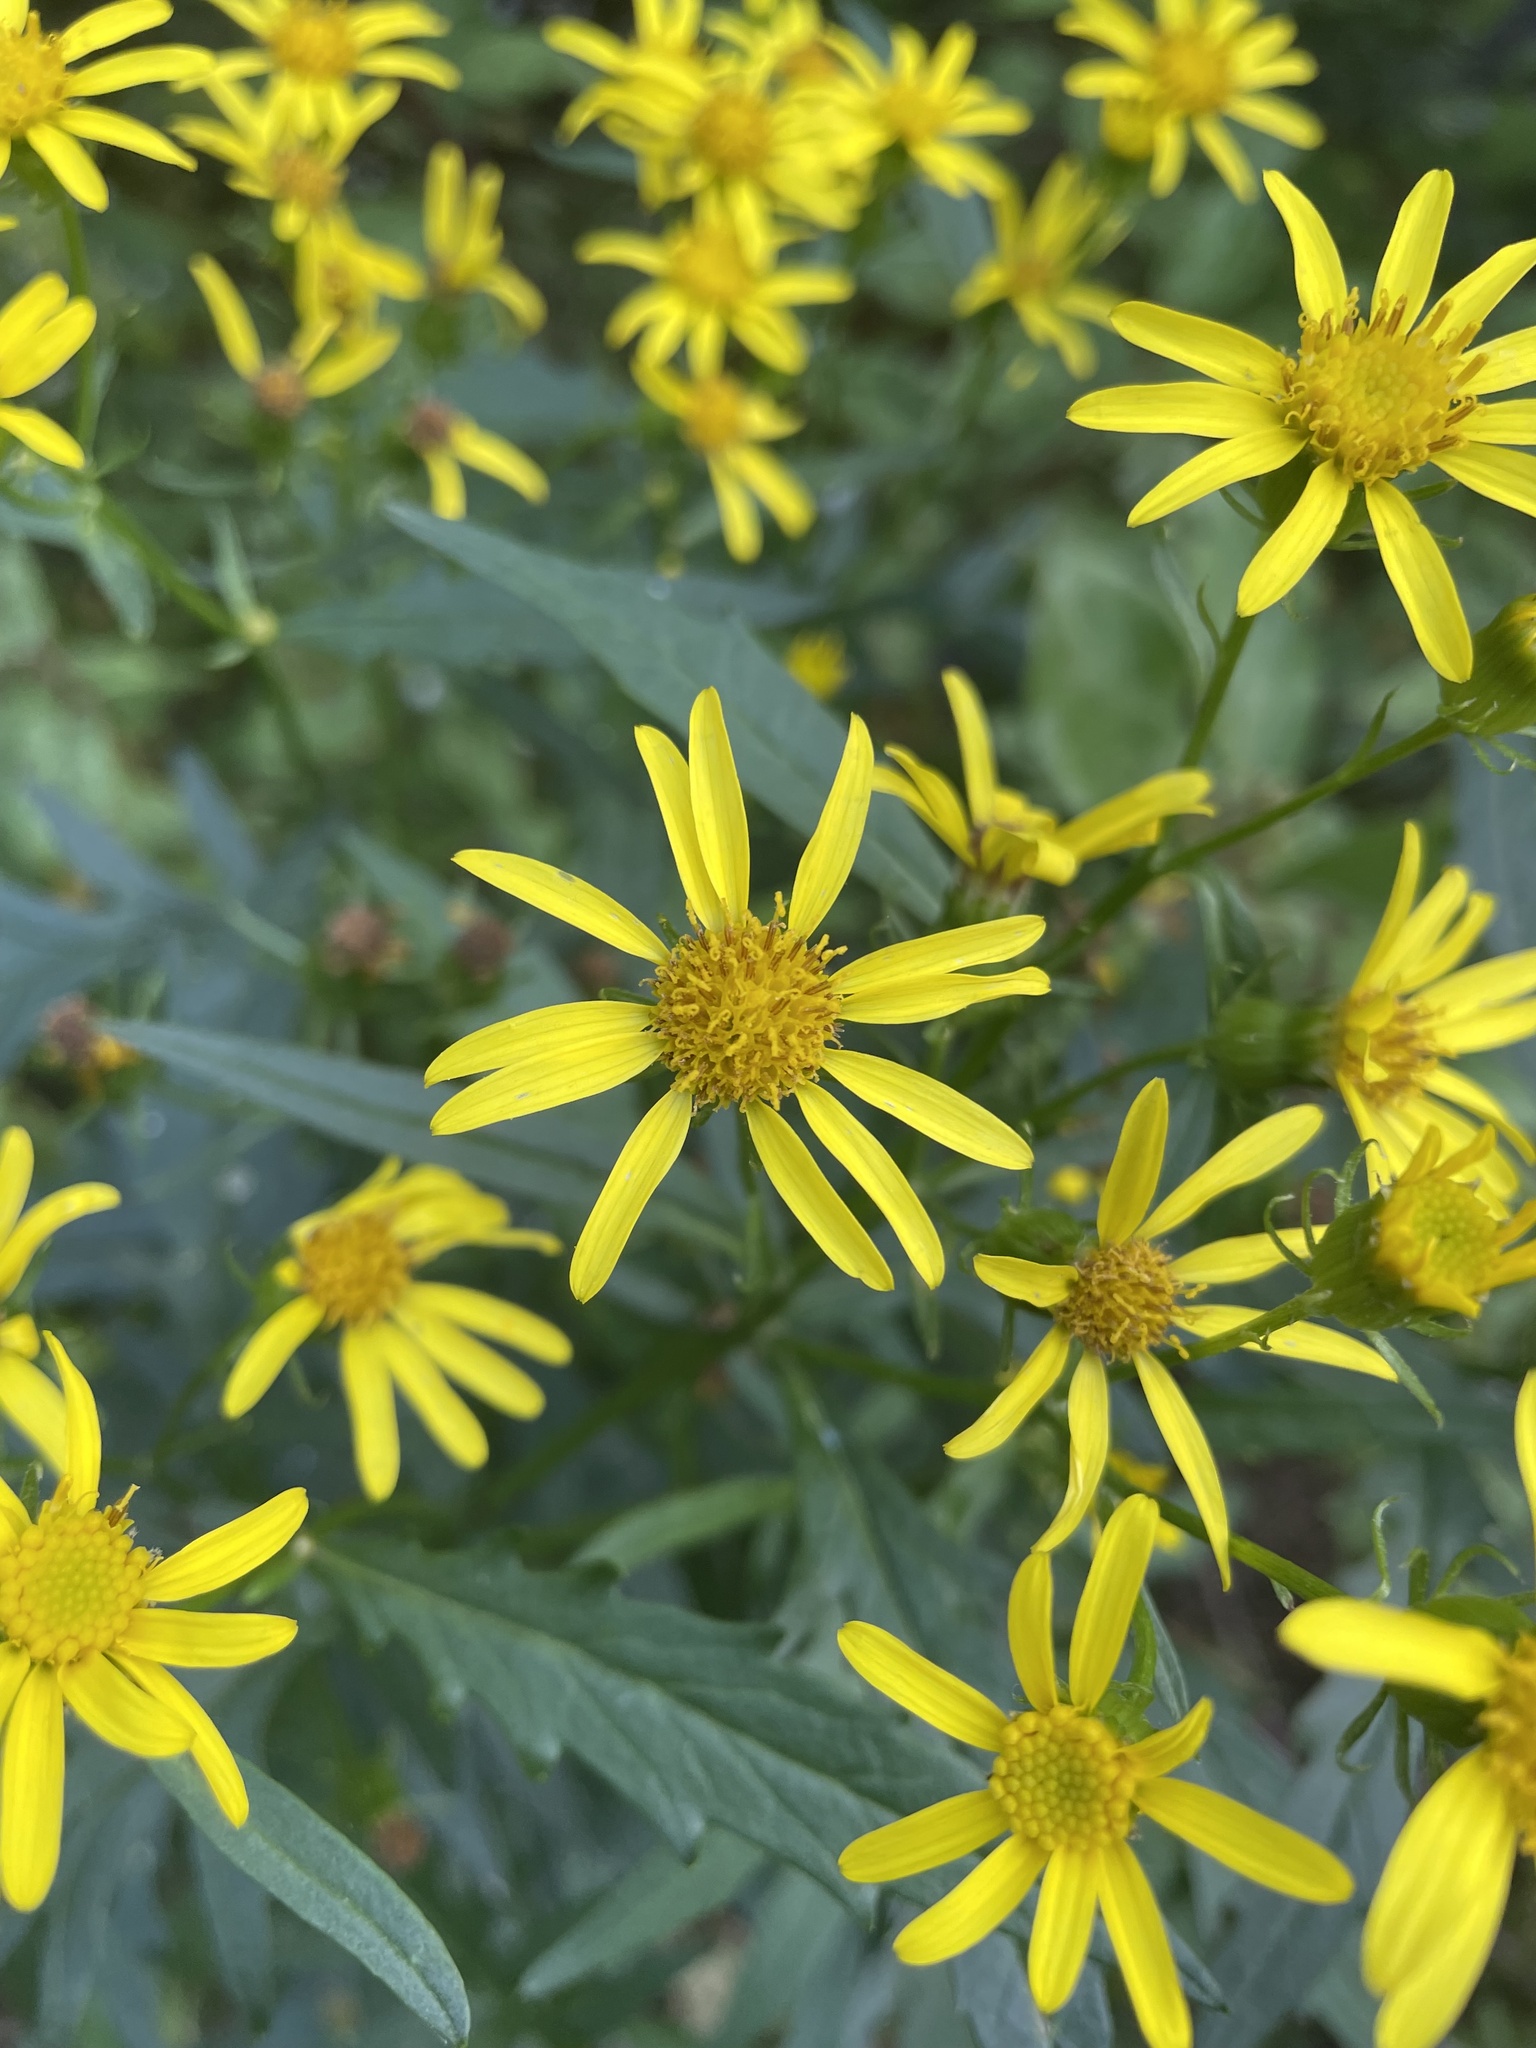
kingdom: Plantae
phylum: Tracheophyta
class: Magnoliopsida
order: Asterales
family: Asteraceae
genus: Senecio
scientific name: Senecio eremophilus
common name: Desert ragwort
